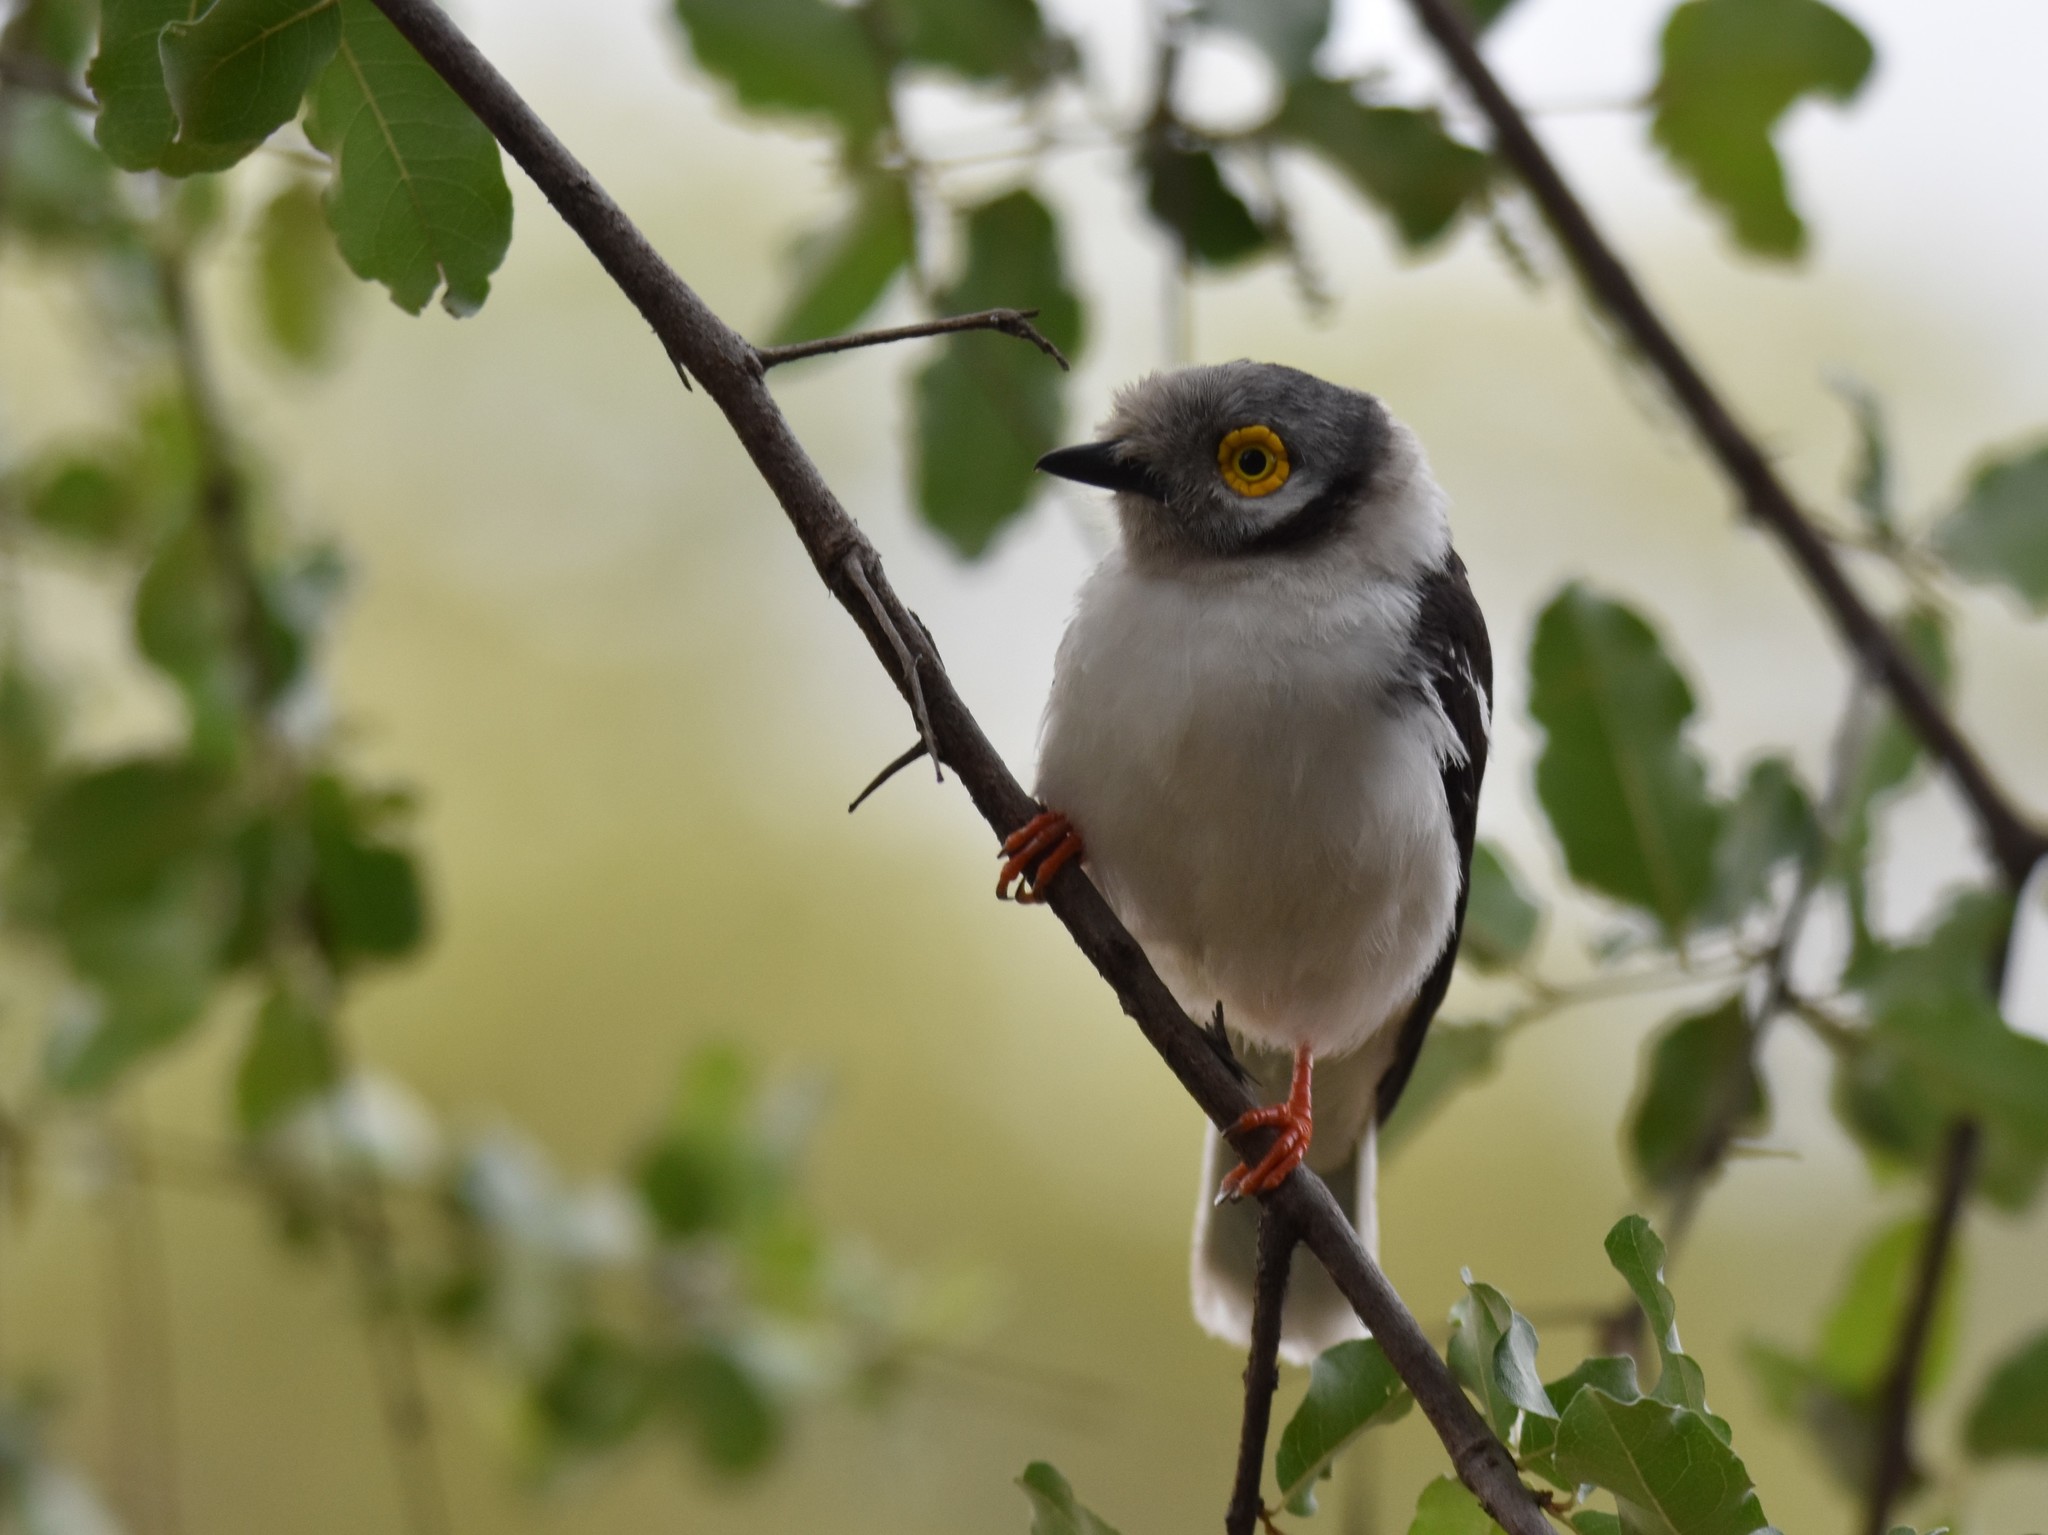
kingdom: Animalia
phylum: Chordata
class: Aves
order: Passeriformes
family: Prionopidae
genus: Prionops
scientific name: Prionops plumatus
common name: White-crested helmetshrike
